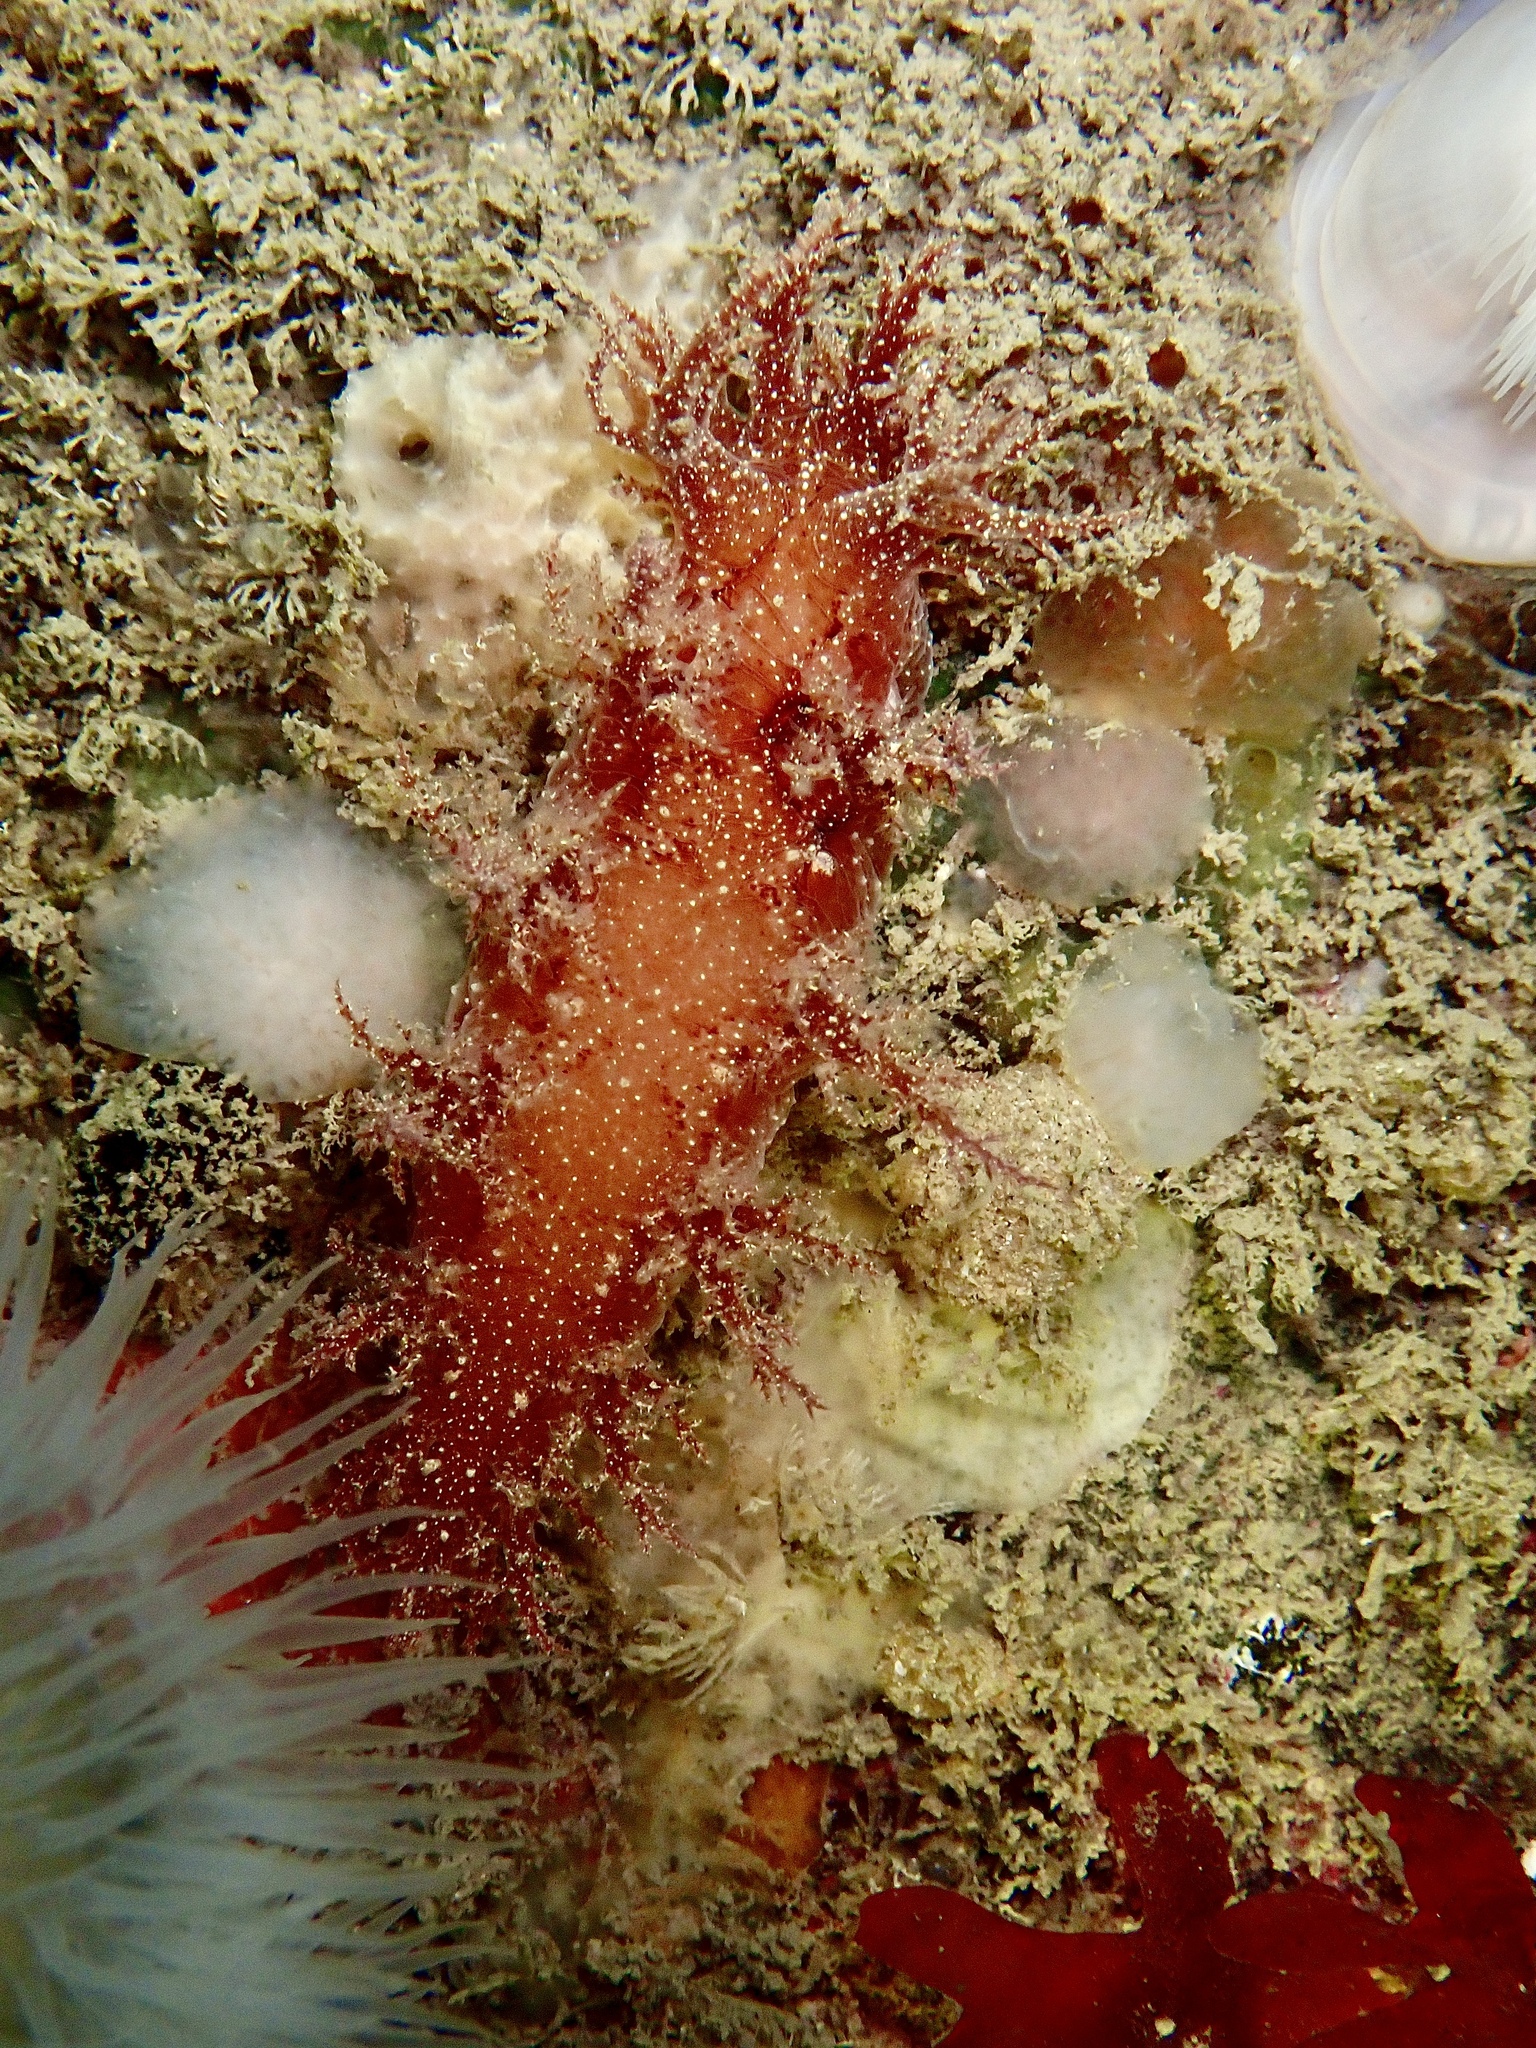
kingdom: Animalia
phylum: Mollusca
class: Gastropoda
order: Nudibranchia
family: Dendronotidae
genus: Dendronotus
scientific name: Dendronotus europaeus
